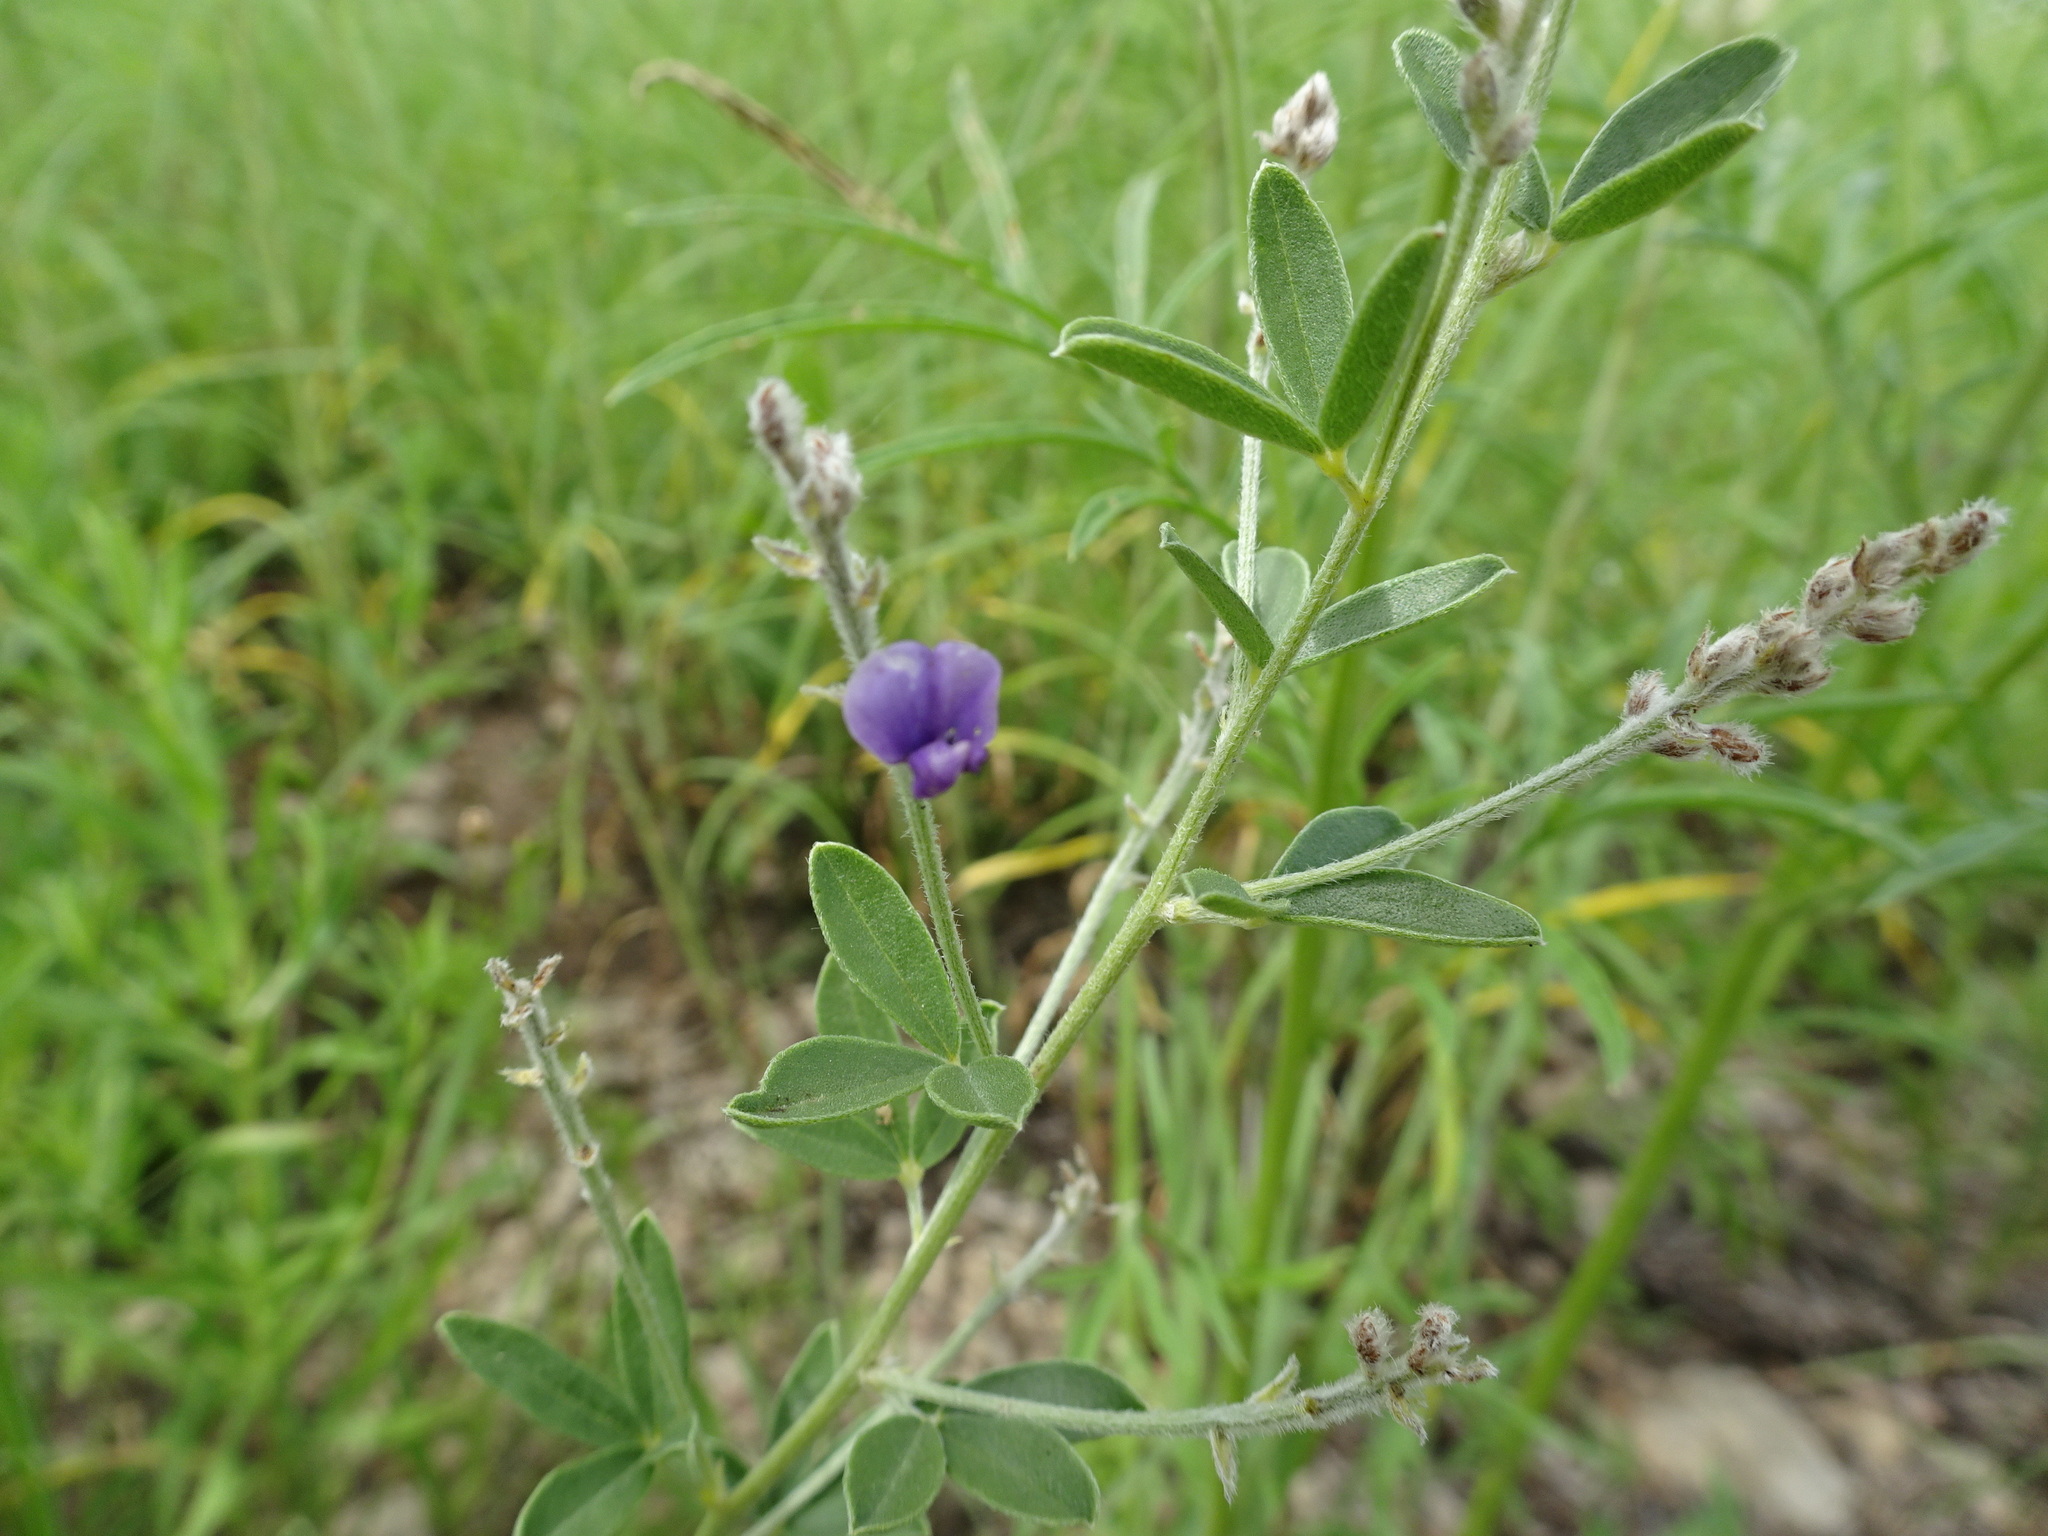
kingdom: Plantae
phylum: Tracheophyta
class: Magnoliopsida
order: Fabales
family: Fabaceae
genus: Pediomelum
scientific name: Pediomelum tenuiflorum
